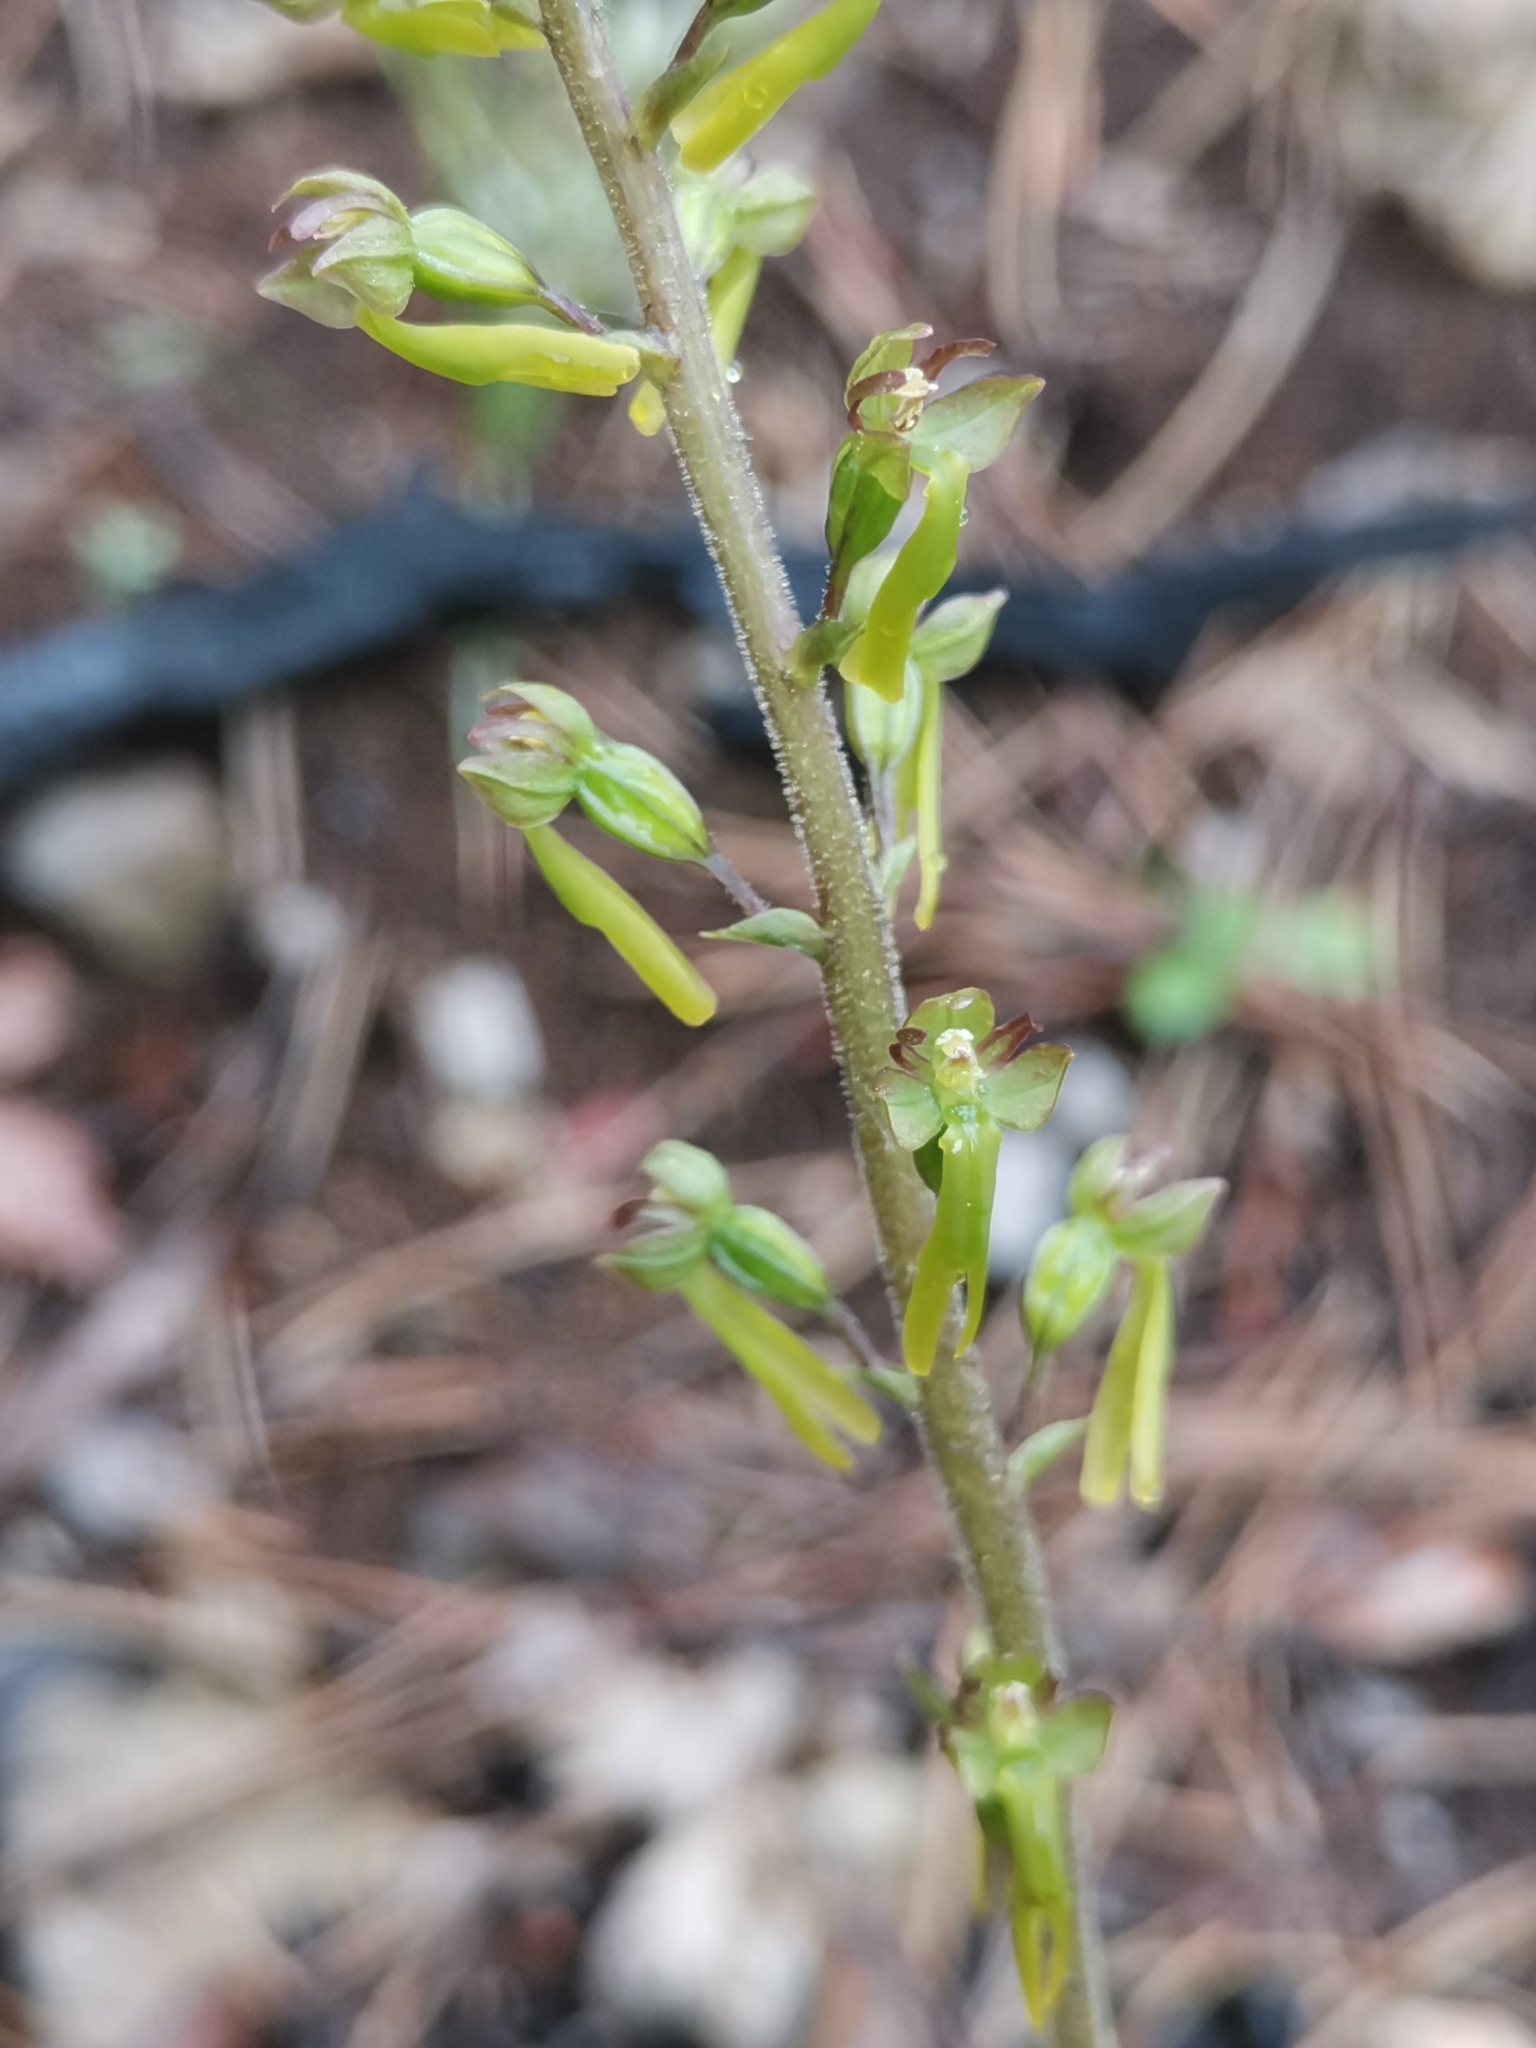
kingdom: Plantae
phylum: Tracheophyta
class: Liliopsida
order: Asparagales
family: Orchidaceae
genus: Neottia
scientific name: Neottia ovata
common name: Common twayblade
